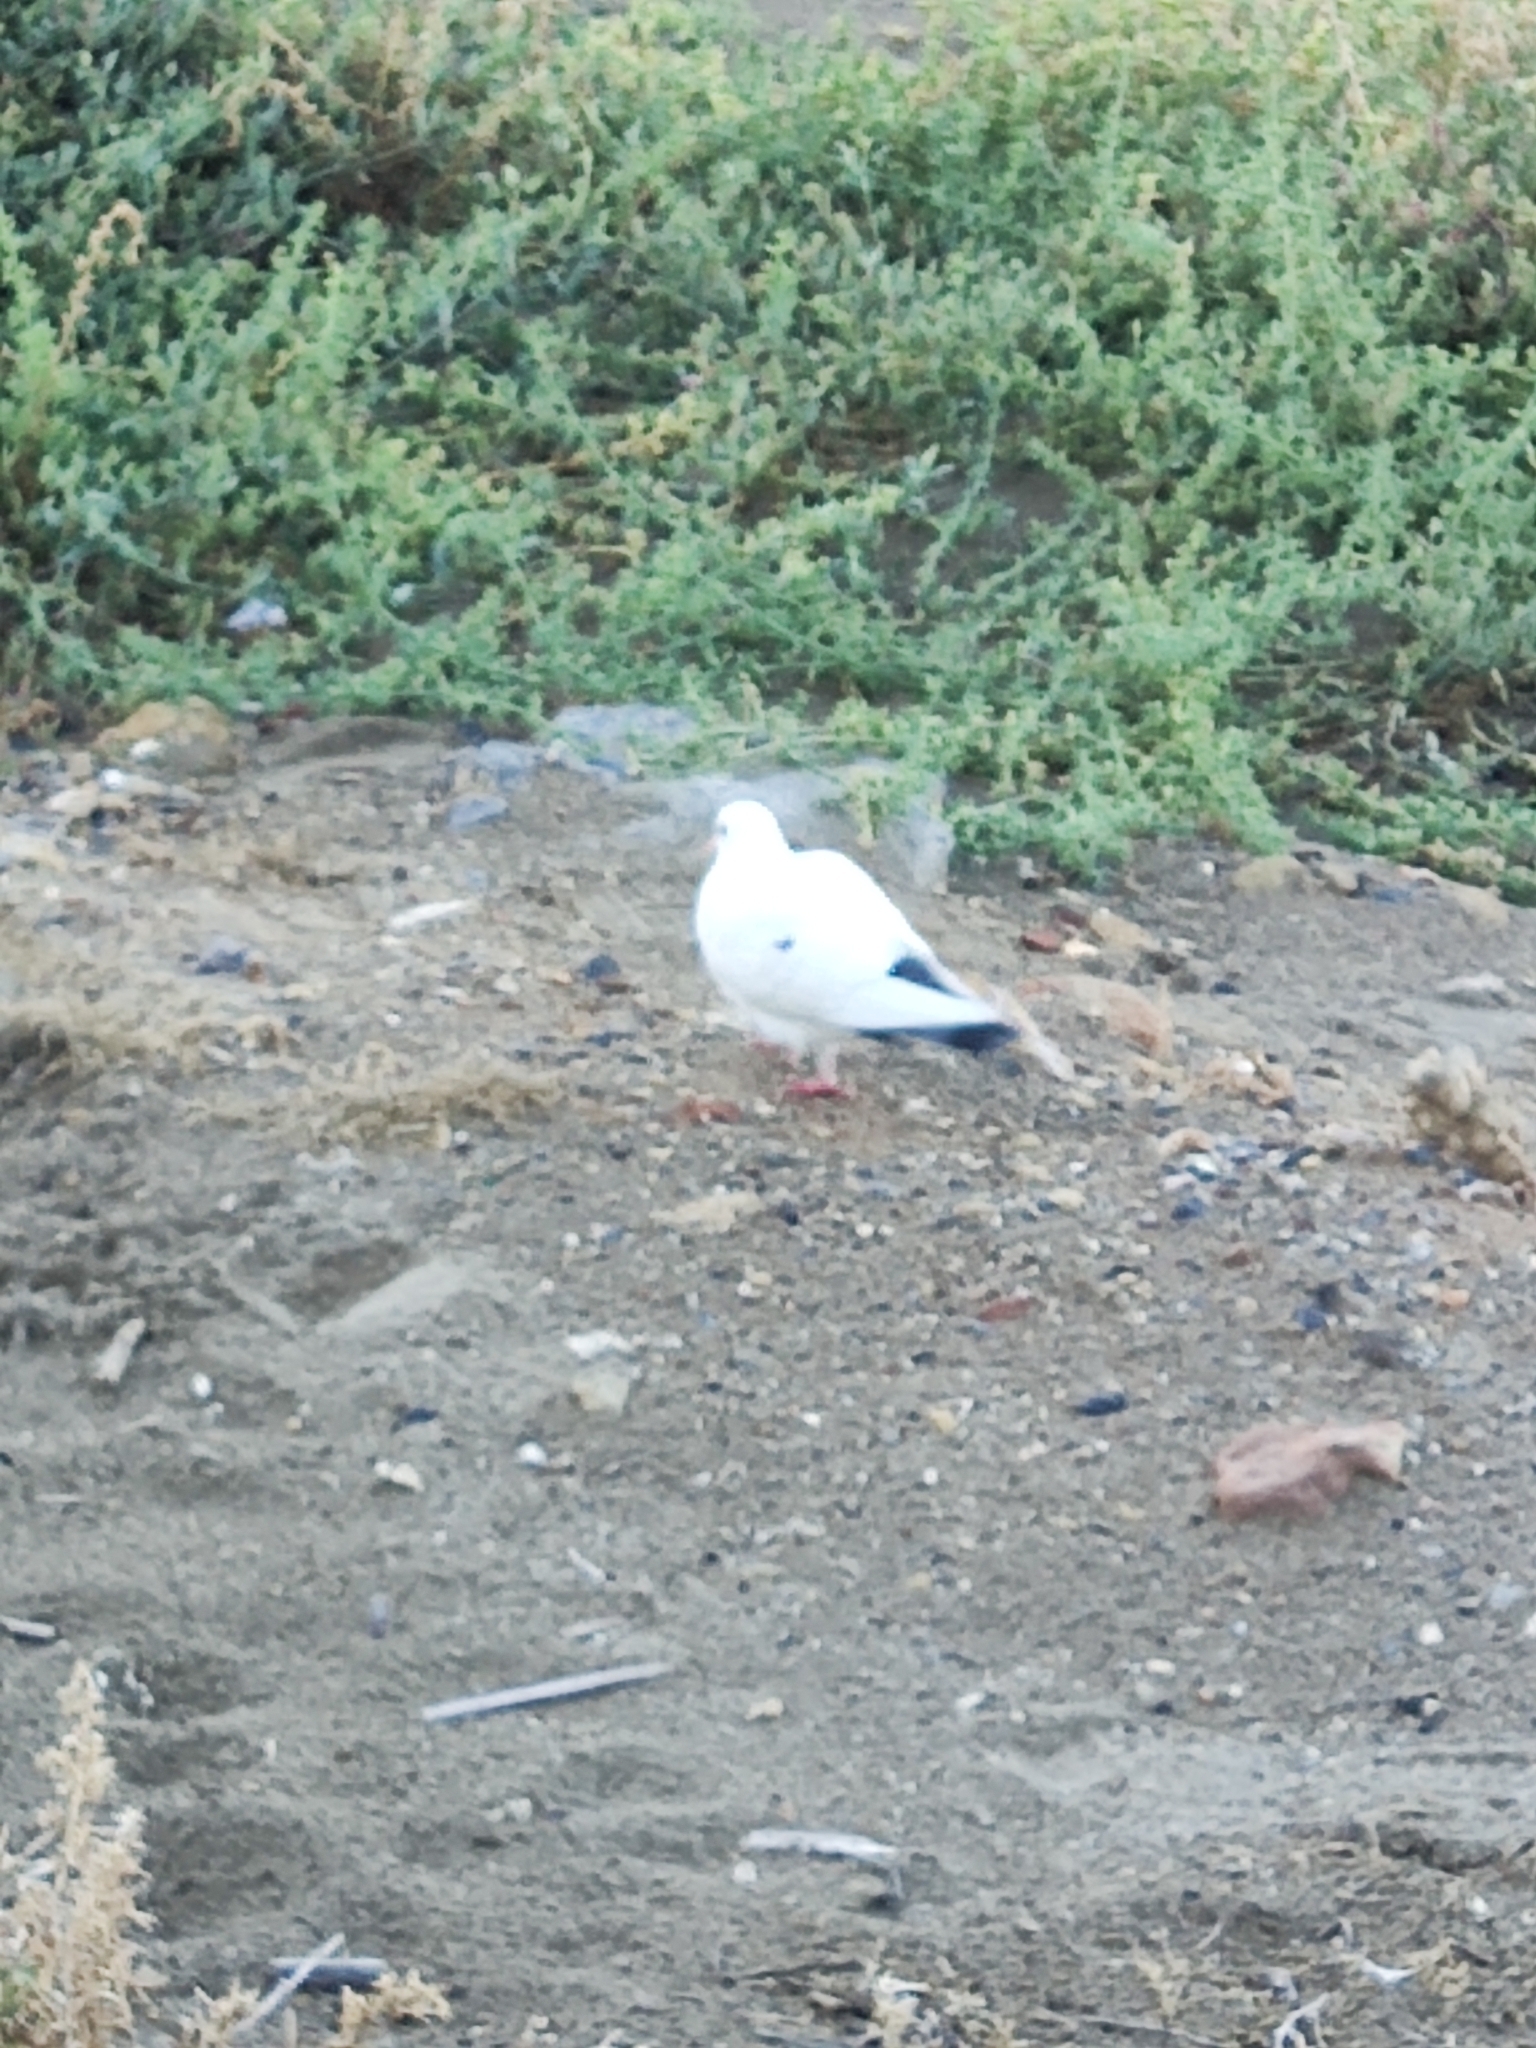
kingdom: Animalia
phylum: Chordata
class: Aves
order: Columbiformes
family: Columbidae
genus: Columba
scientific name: Columba livia
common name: Rock pigeon
